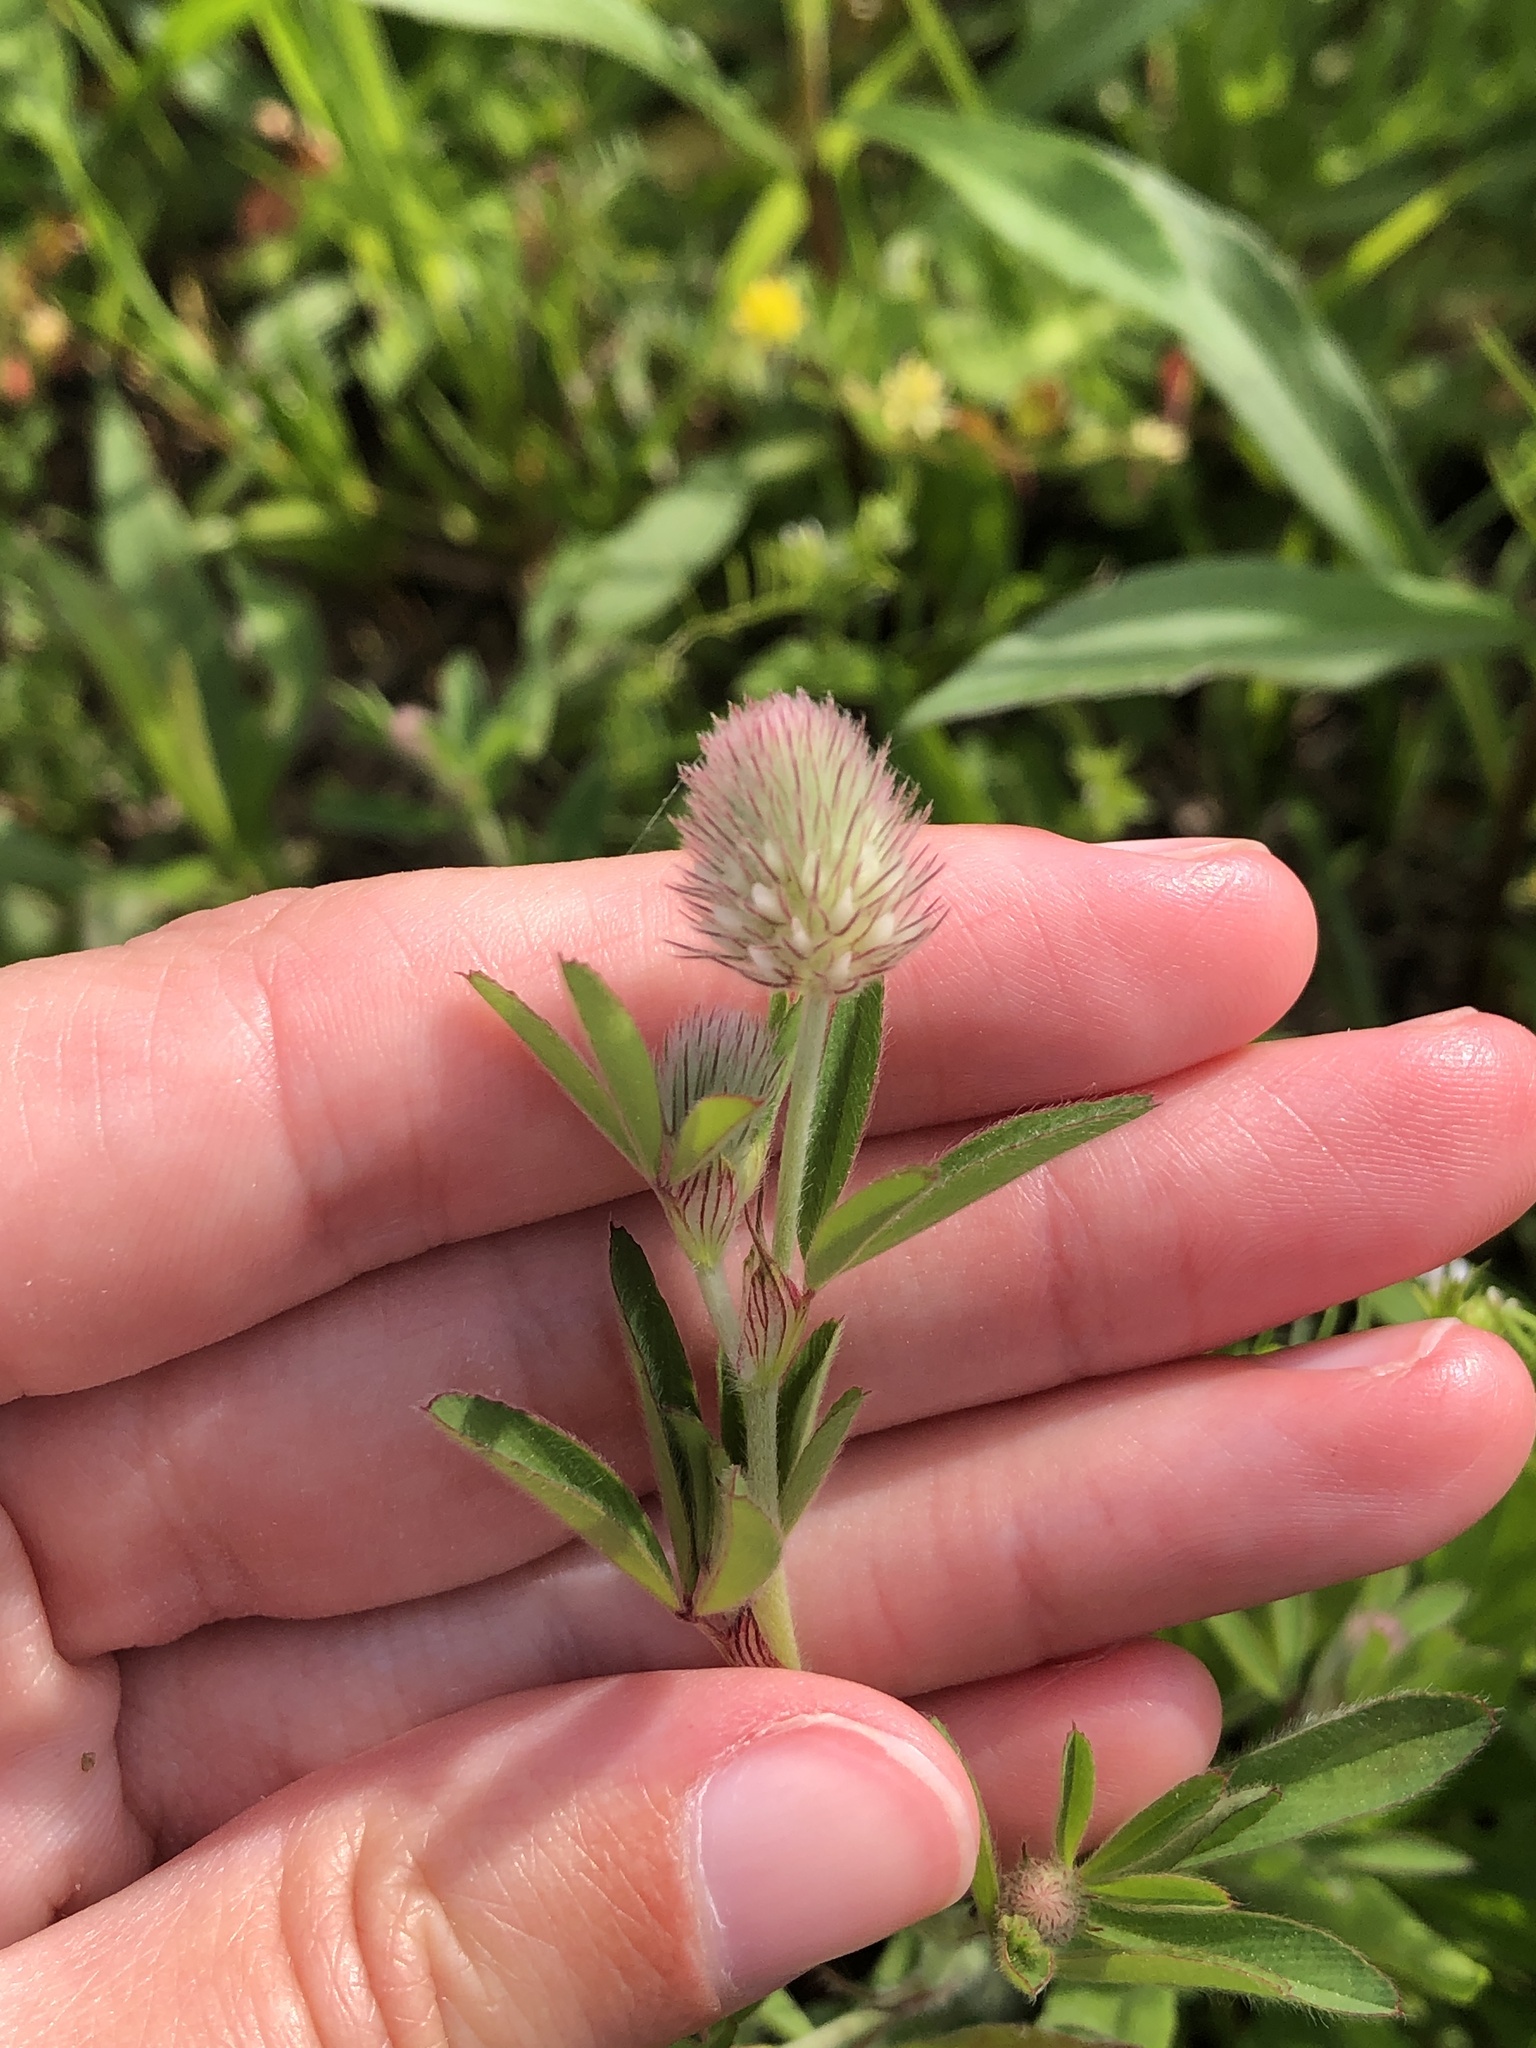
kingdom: Plantae
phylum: Tracheophyta
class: Magnoliopsida
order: Fabales
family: Fabaceae
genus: Trifolium
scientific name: Trifolium arvense
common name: Hare's-foot clover
